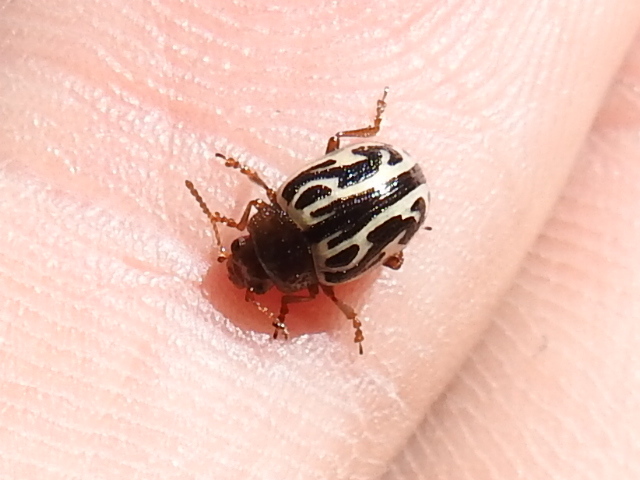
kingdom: Animalia
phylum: Arthropoda
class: Insecta
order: Coleoptera
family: Chrysomelidae
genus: Calligrapha
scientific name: Calligrapha
